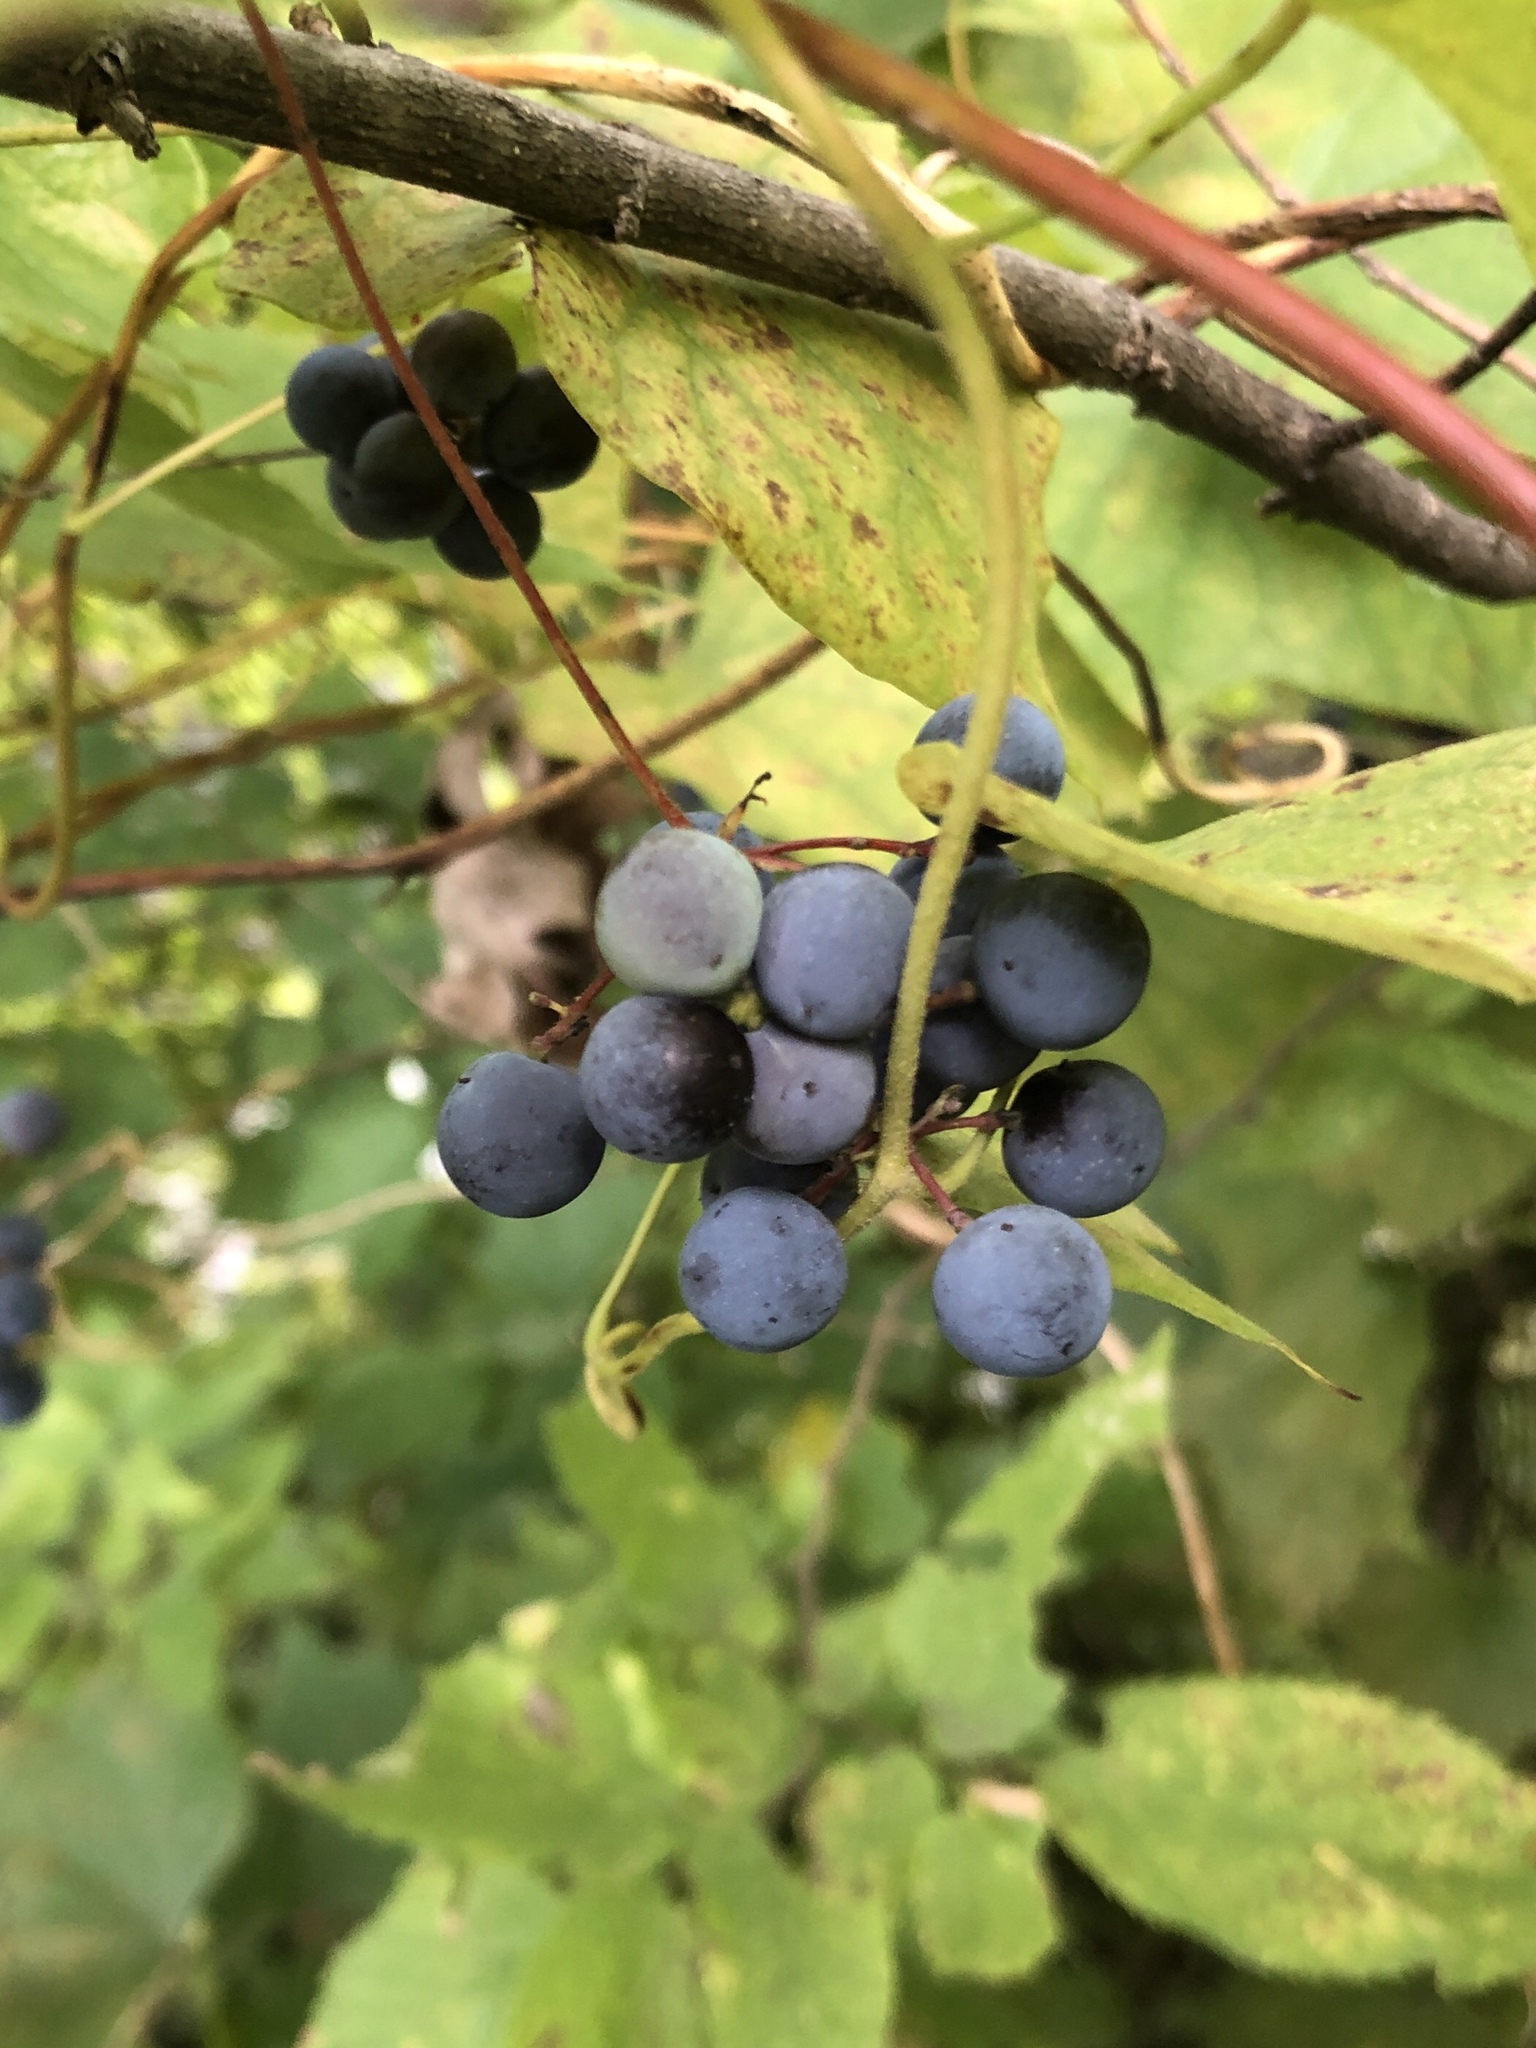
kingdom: Plantae
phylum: Tracheophyta
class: Magnoliopsida
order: Ranunculales
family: Menispermaceae
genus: Menispermum
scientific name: Menispermum canadense
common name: Moonseed
